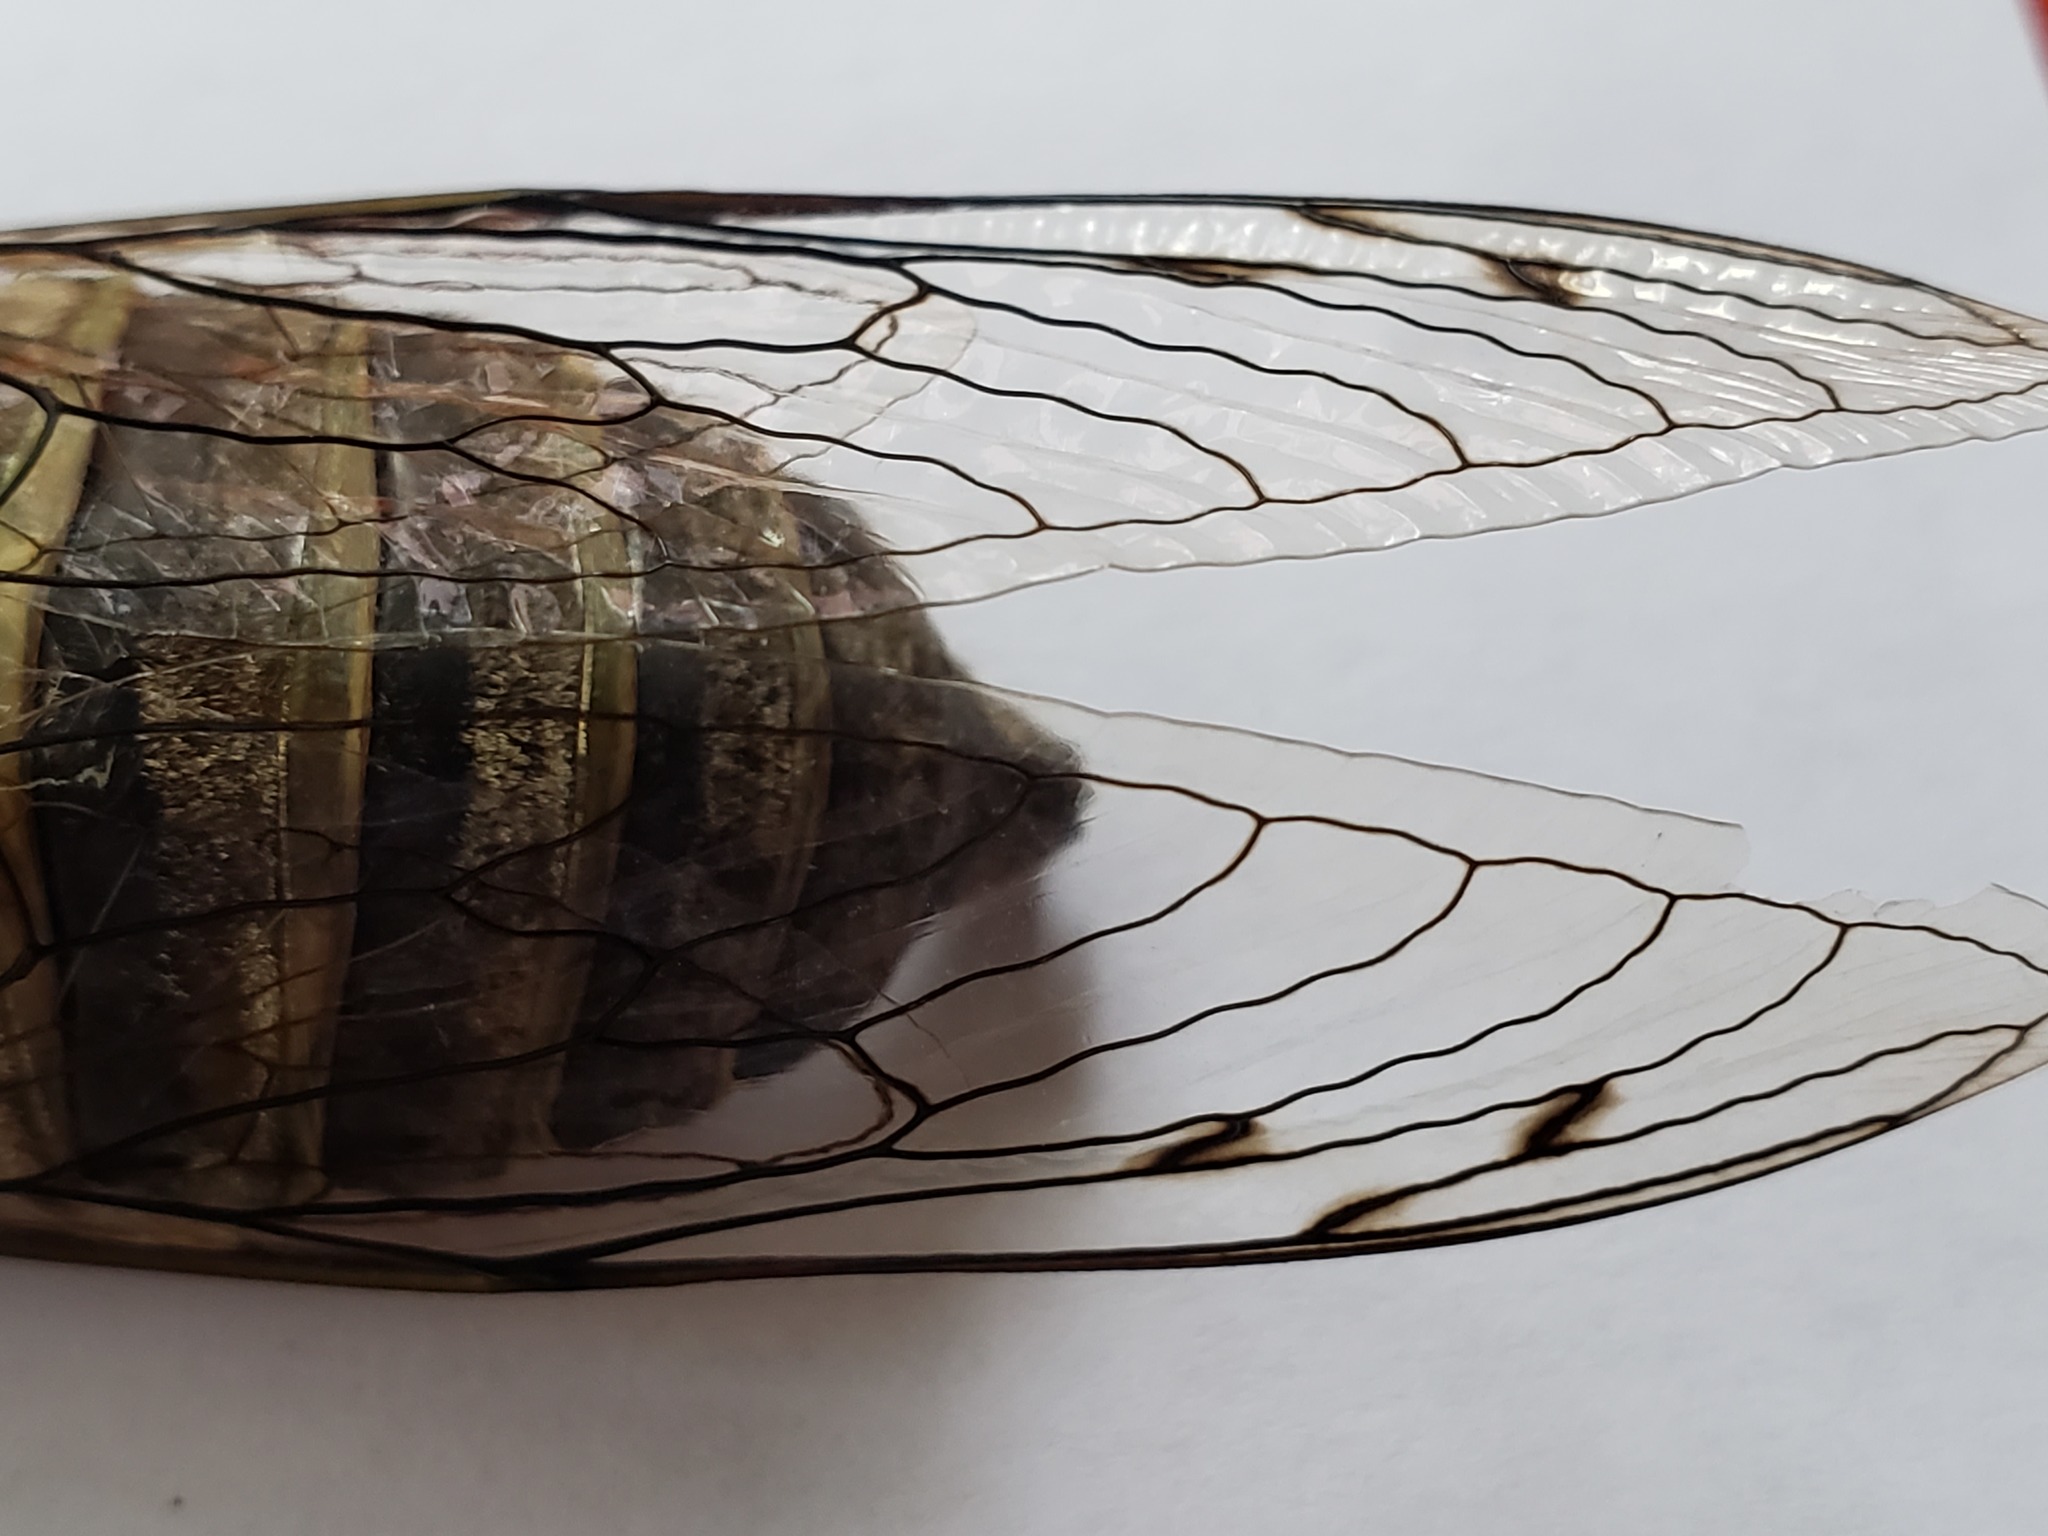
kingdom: Animalia
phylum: Arthropoda
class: Insecta
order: Hemiptera
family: Cicadidae
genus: Quesada
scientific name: Quesada gigas
